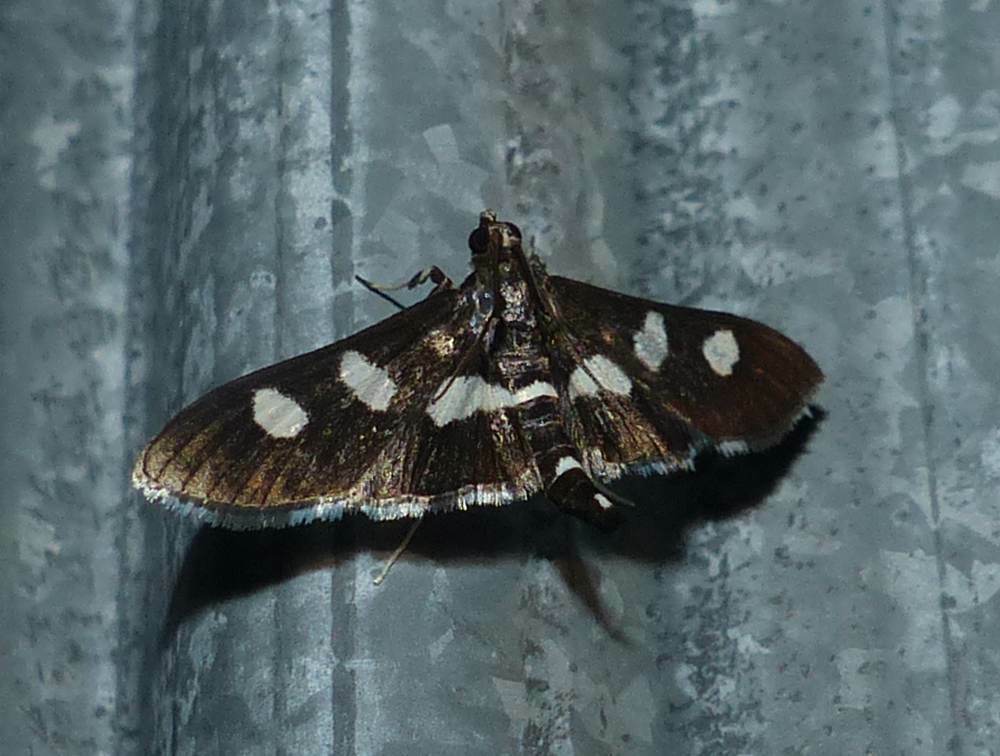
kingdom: Animalia
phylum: Arthropoda
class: Insecta
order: Lepidoptera
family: Crambidae
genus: Desmia
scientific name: Desmia
